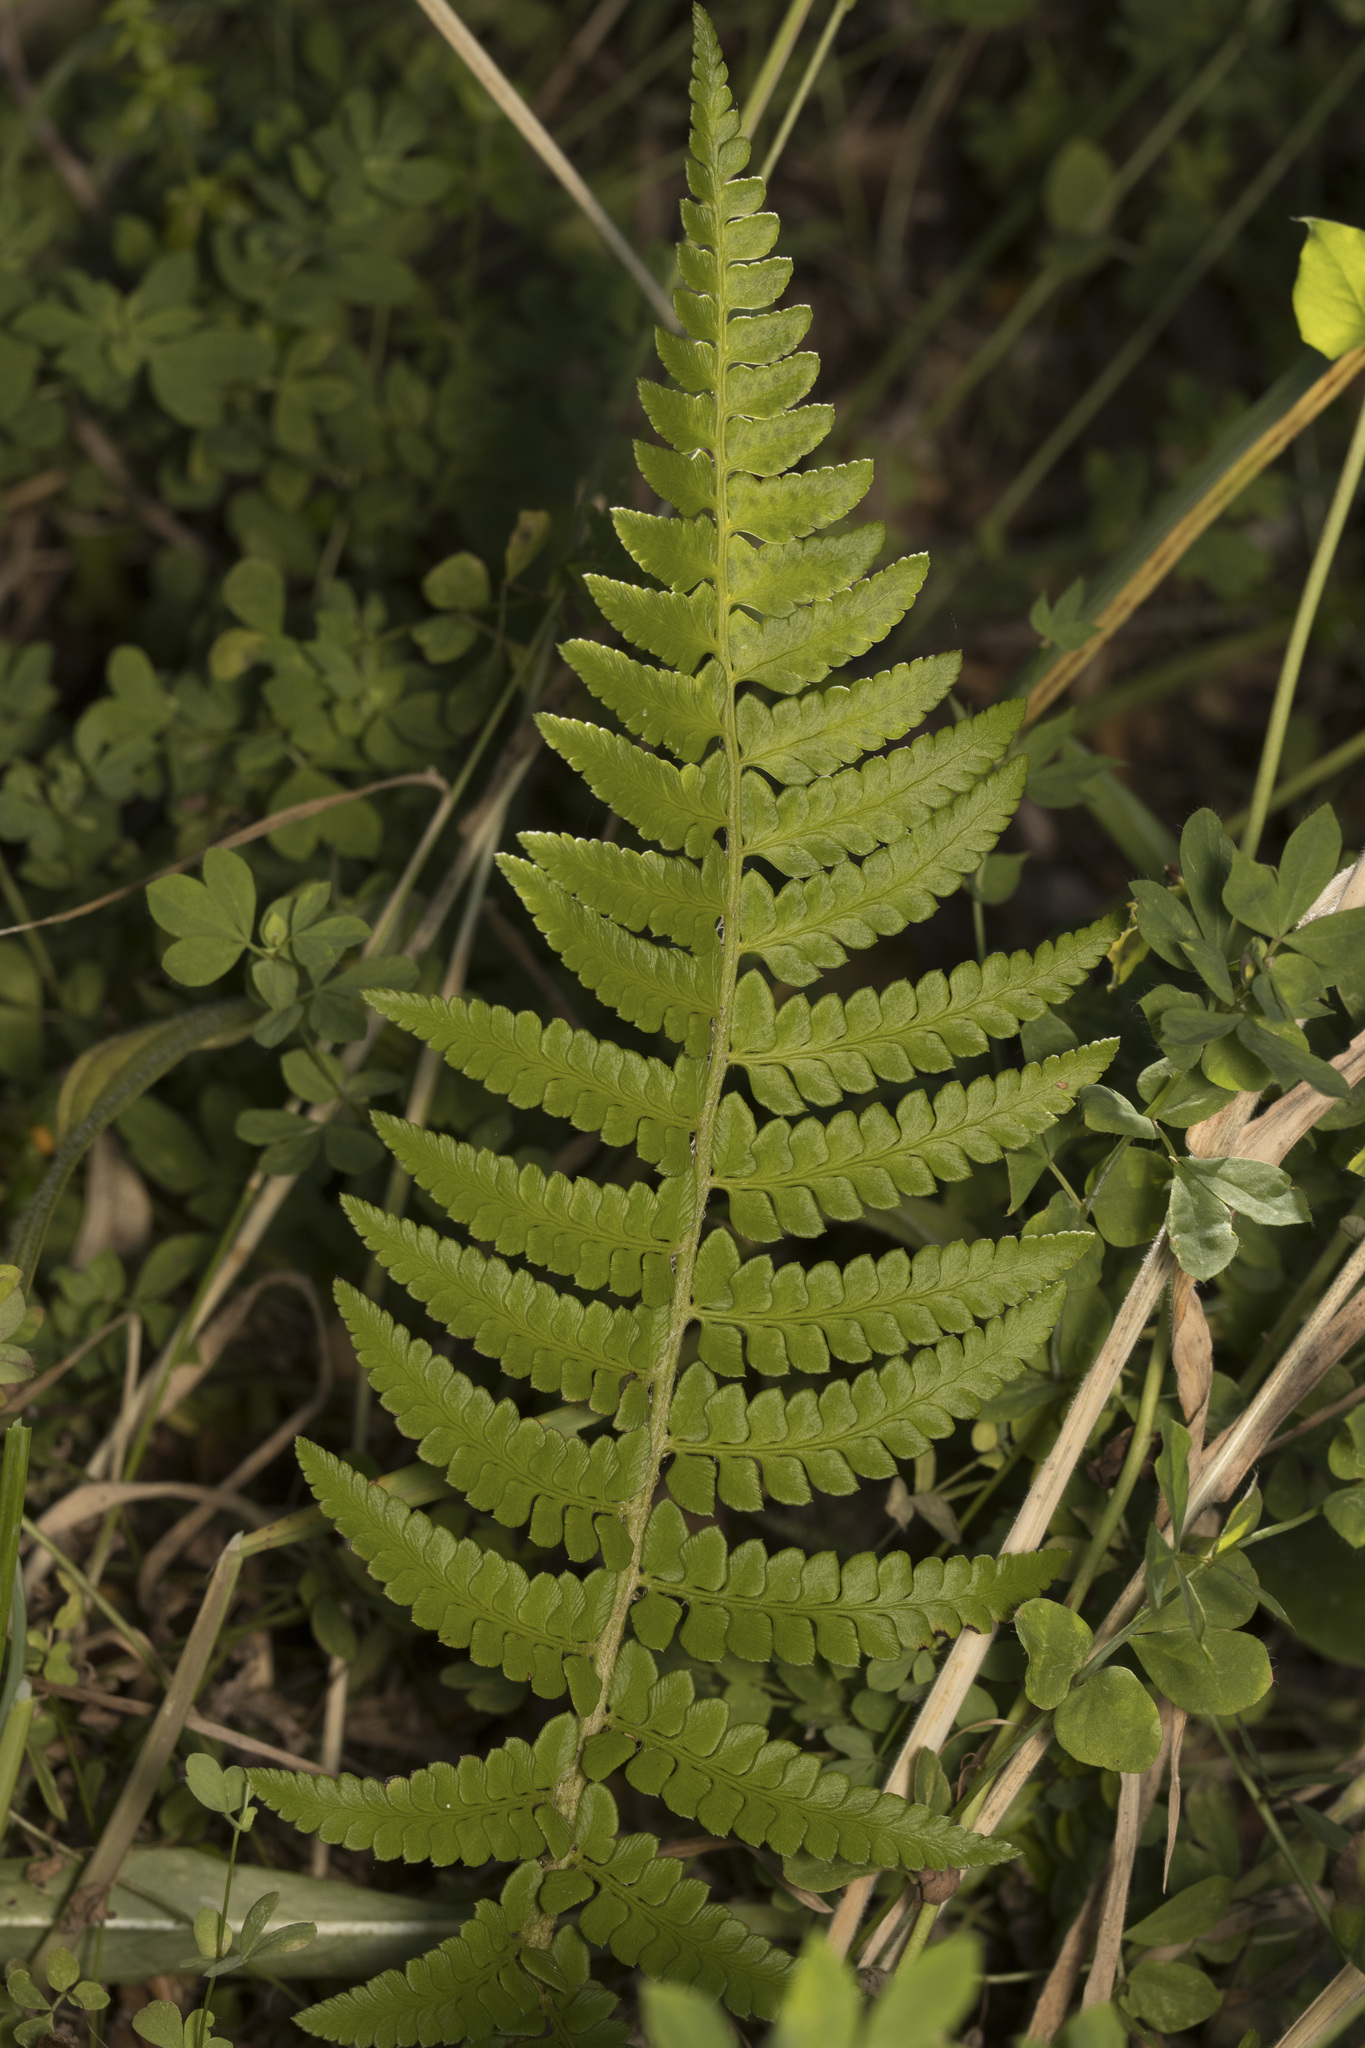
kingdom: Plantae
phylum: Tracheophyta
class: Polypodiopsida
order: Polypodiales
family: Dryopteridaceae
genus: Polystichum
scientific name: Polystichum chilense
